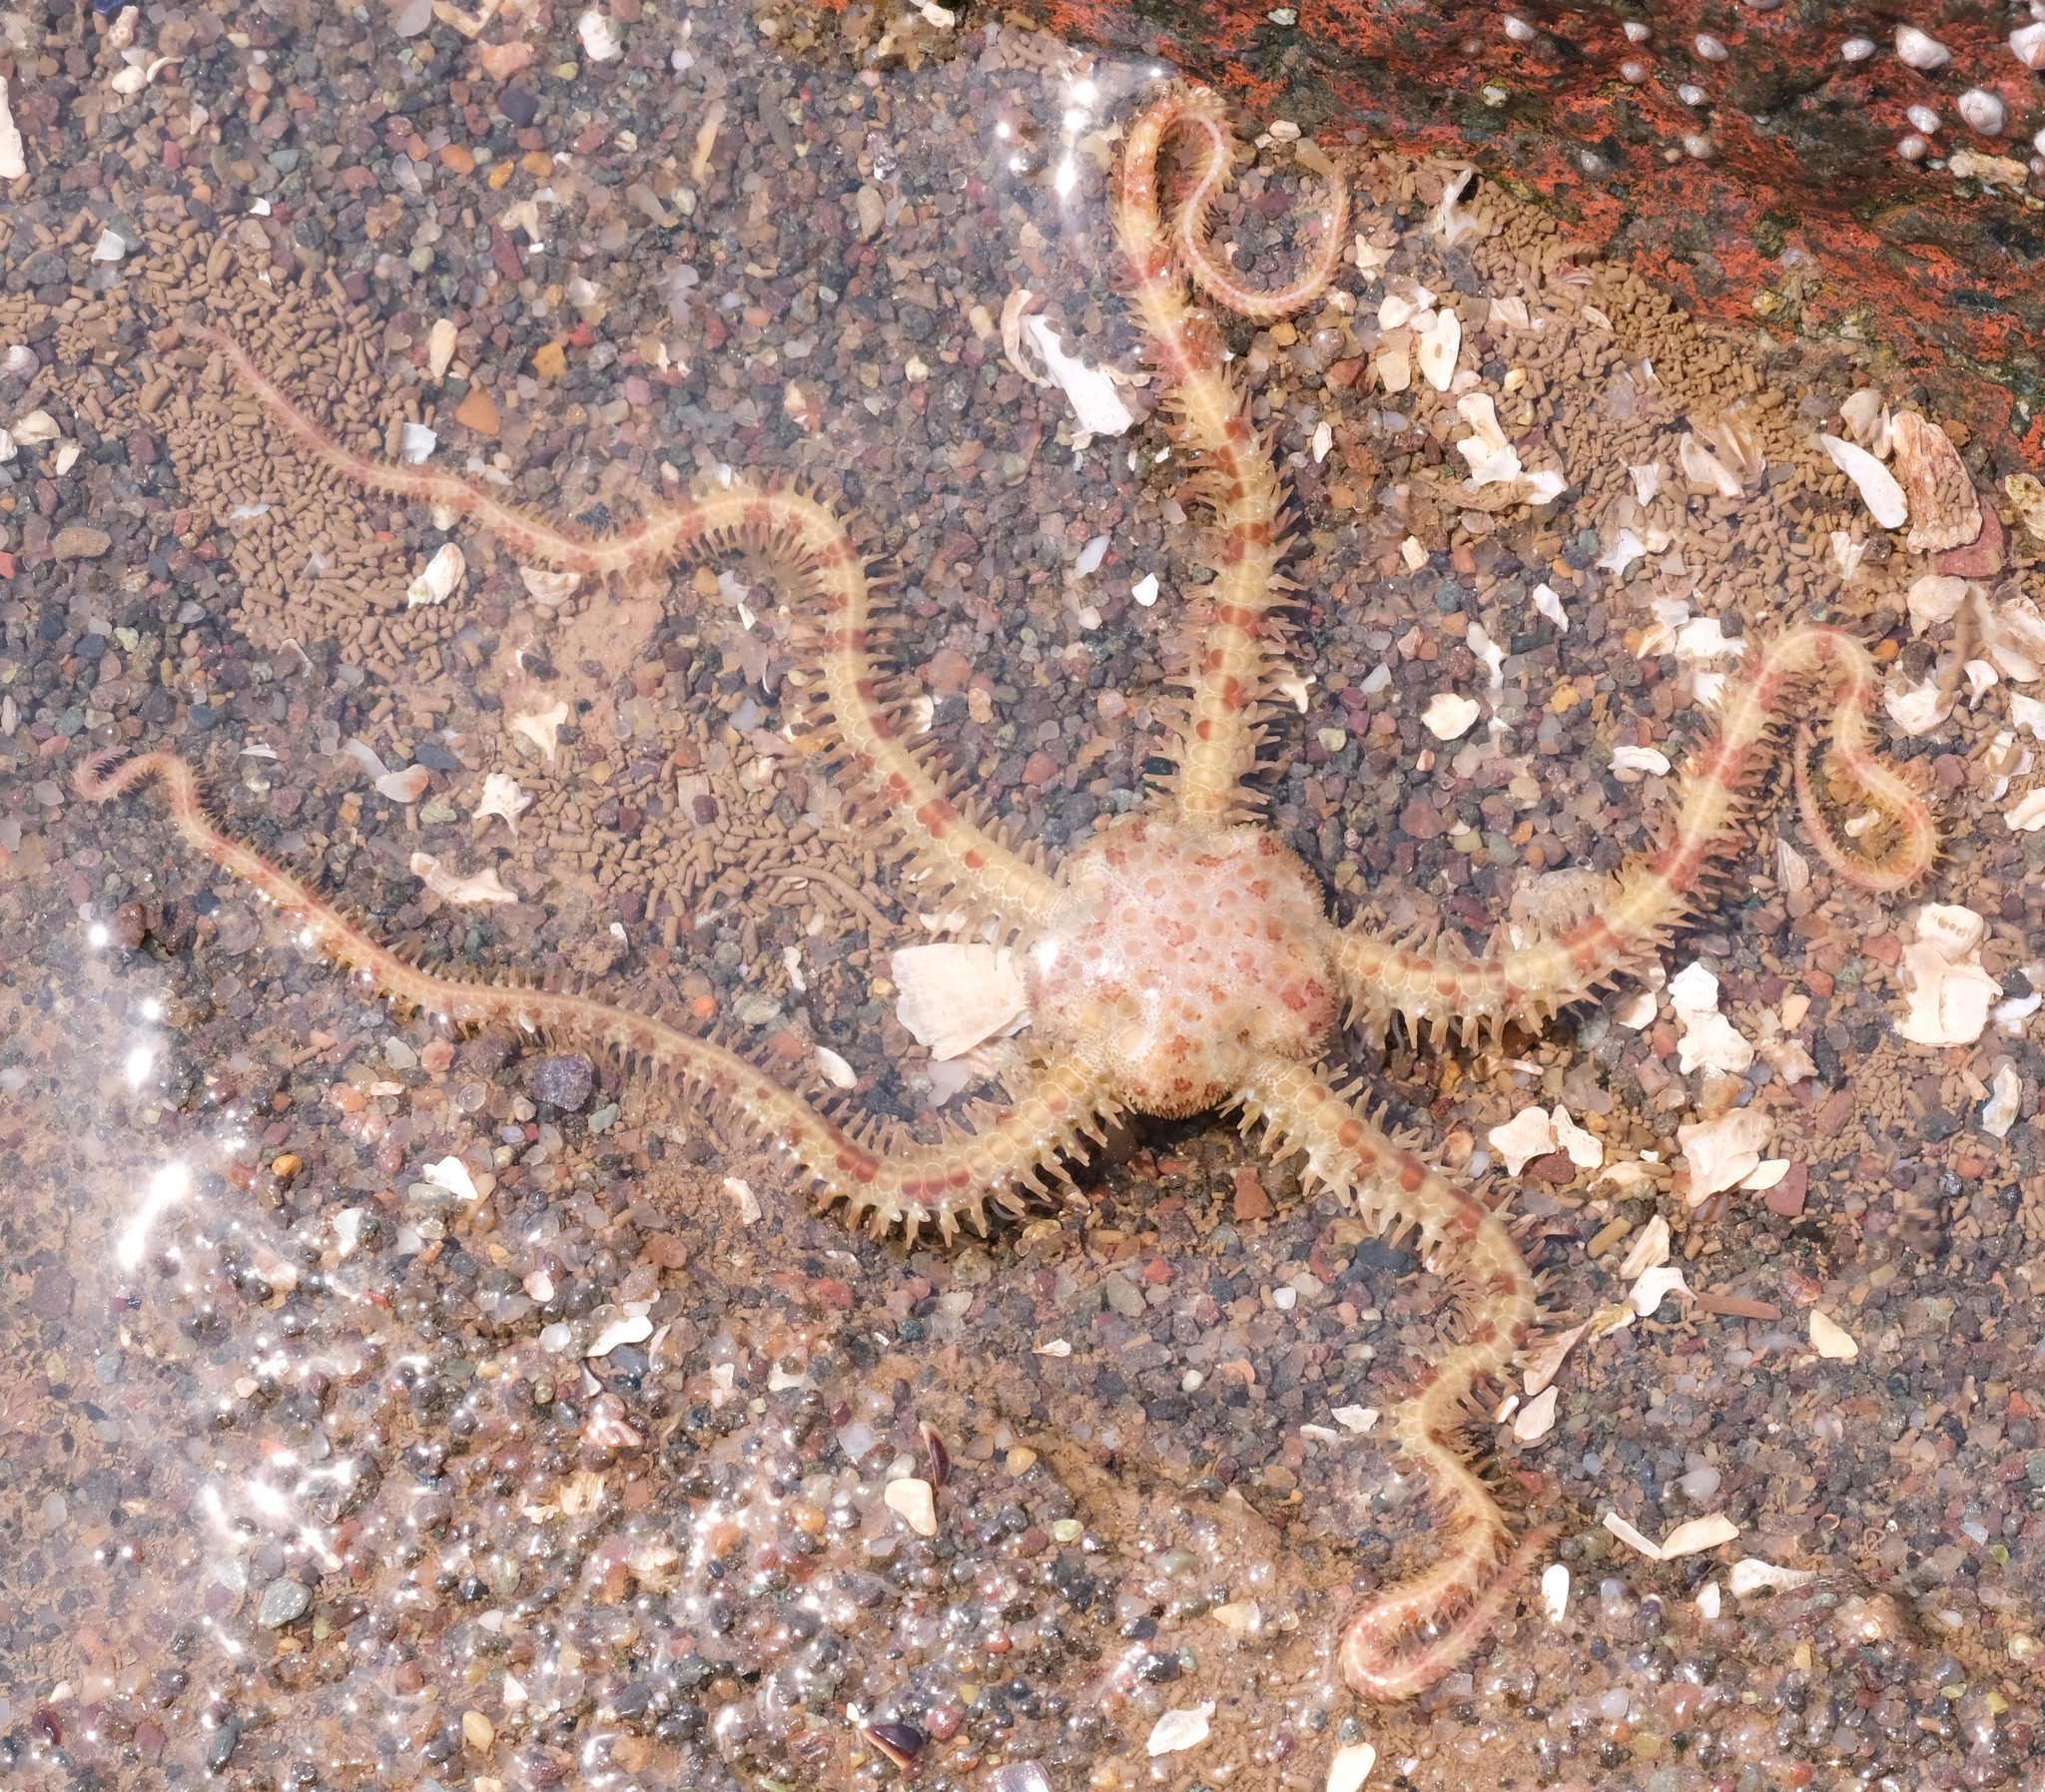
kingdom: Animalia
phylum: Echinodermata
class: Ophiuroidea
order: Amphilepidida
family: Ophiopholidae
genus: Ophiopholis
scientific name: Ophiopholis aculeata
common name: Crevice brittlestar
